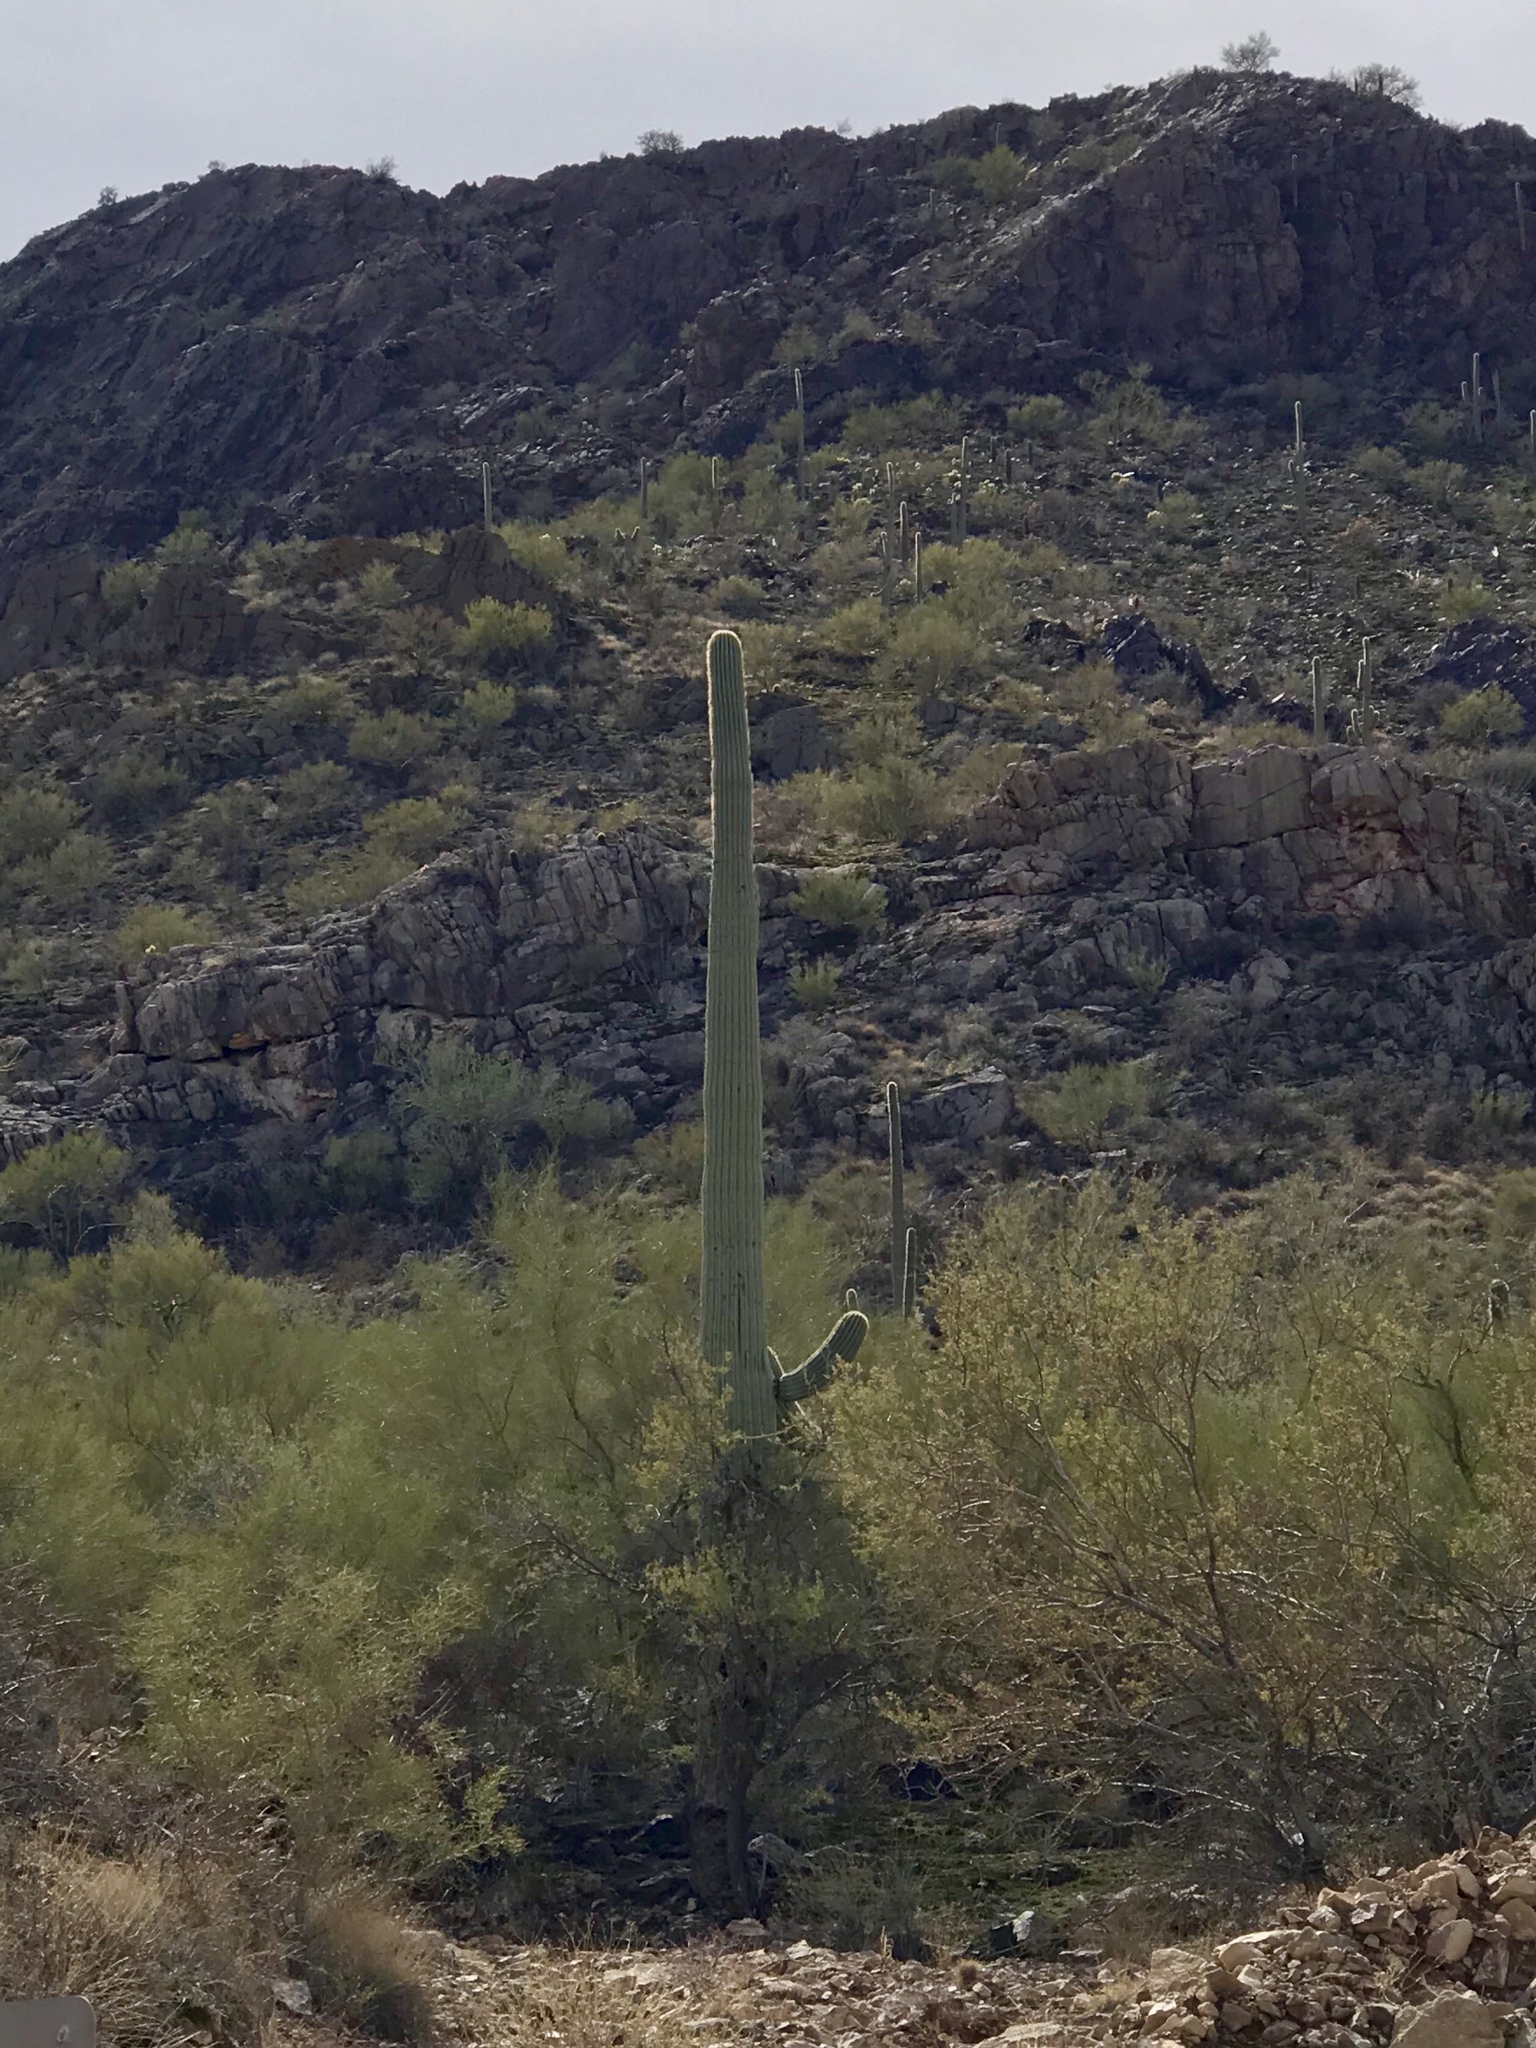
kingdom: Plantae
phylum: Tracheophyta
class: Magnoliopsida
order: Caryophyllales
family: Cactaceae
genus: Carnegiea
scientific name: Carnegiea gigantea
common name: Saguaro
